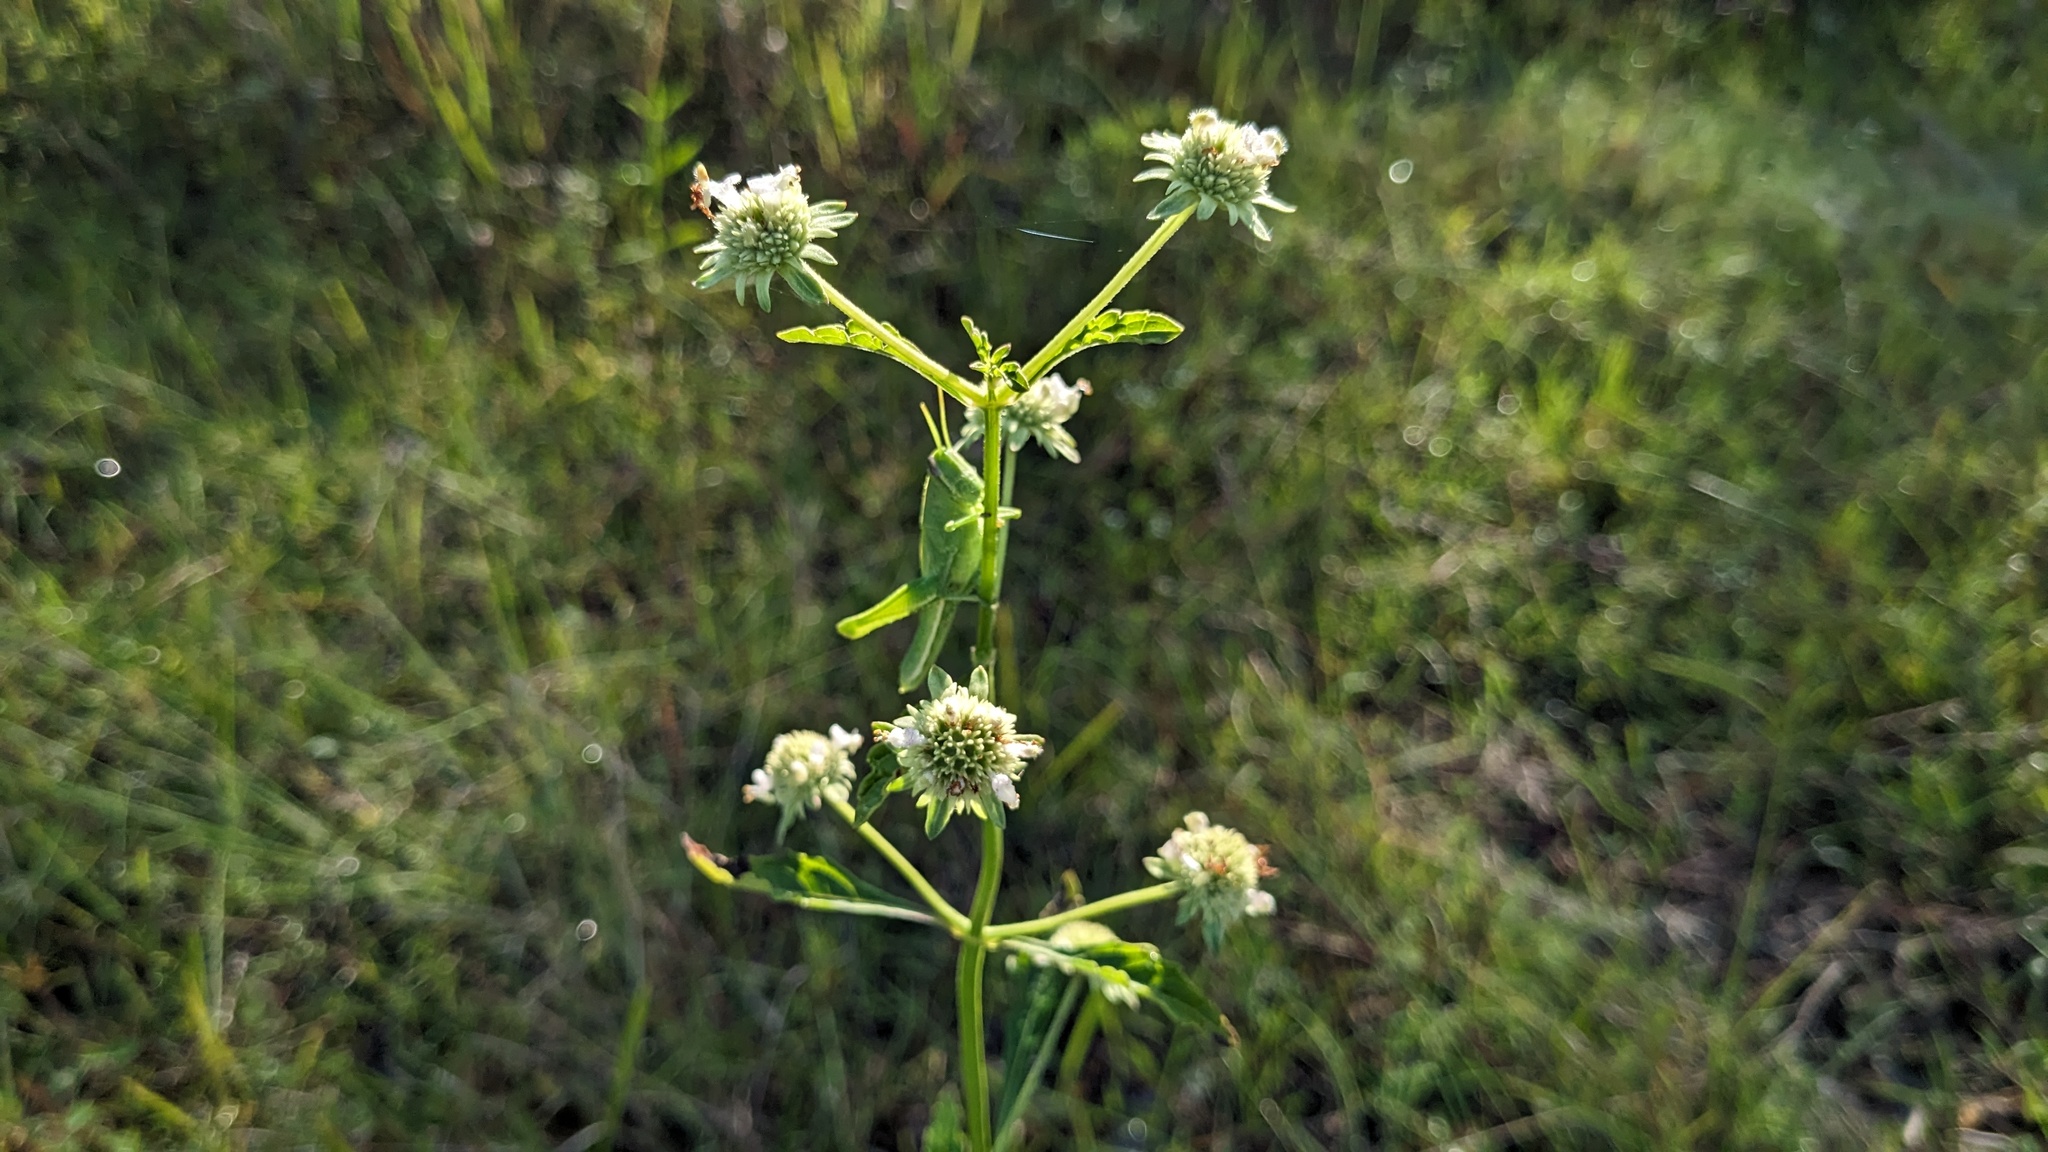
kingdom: Plantae
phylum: Tracheophyta
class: Magnoliopsida
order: Lamiales
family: Lamiaceae
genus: Hyptis
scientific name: Hyptis alata
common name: Cluster bush-mint
